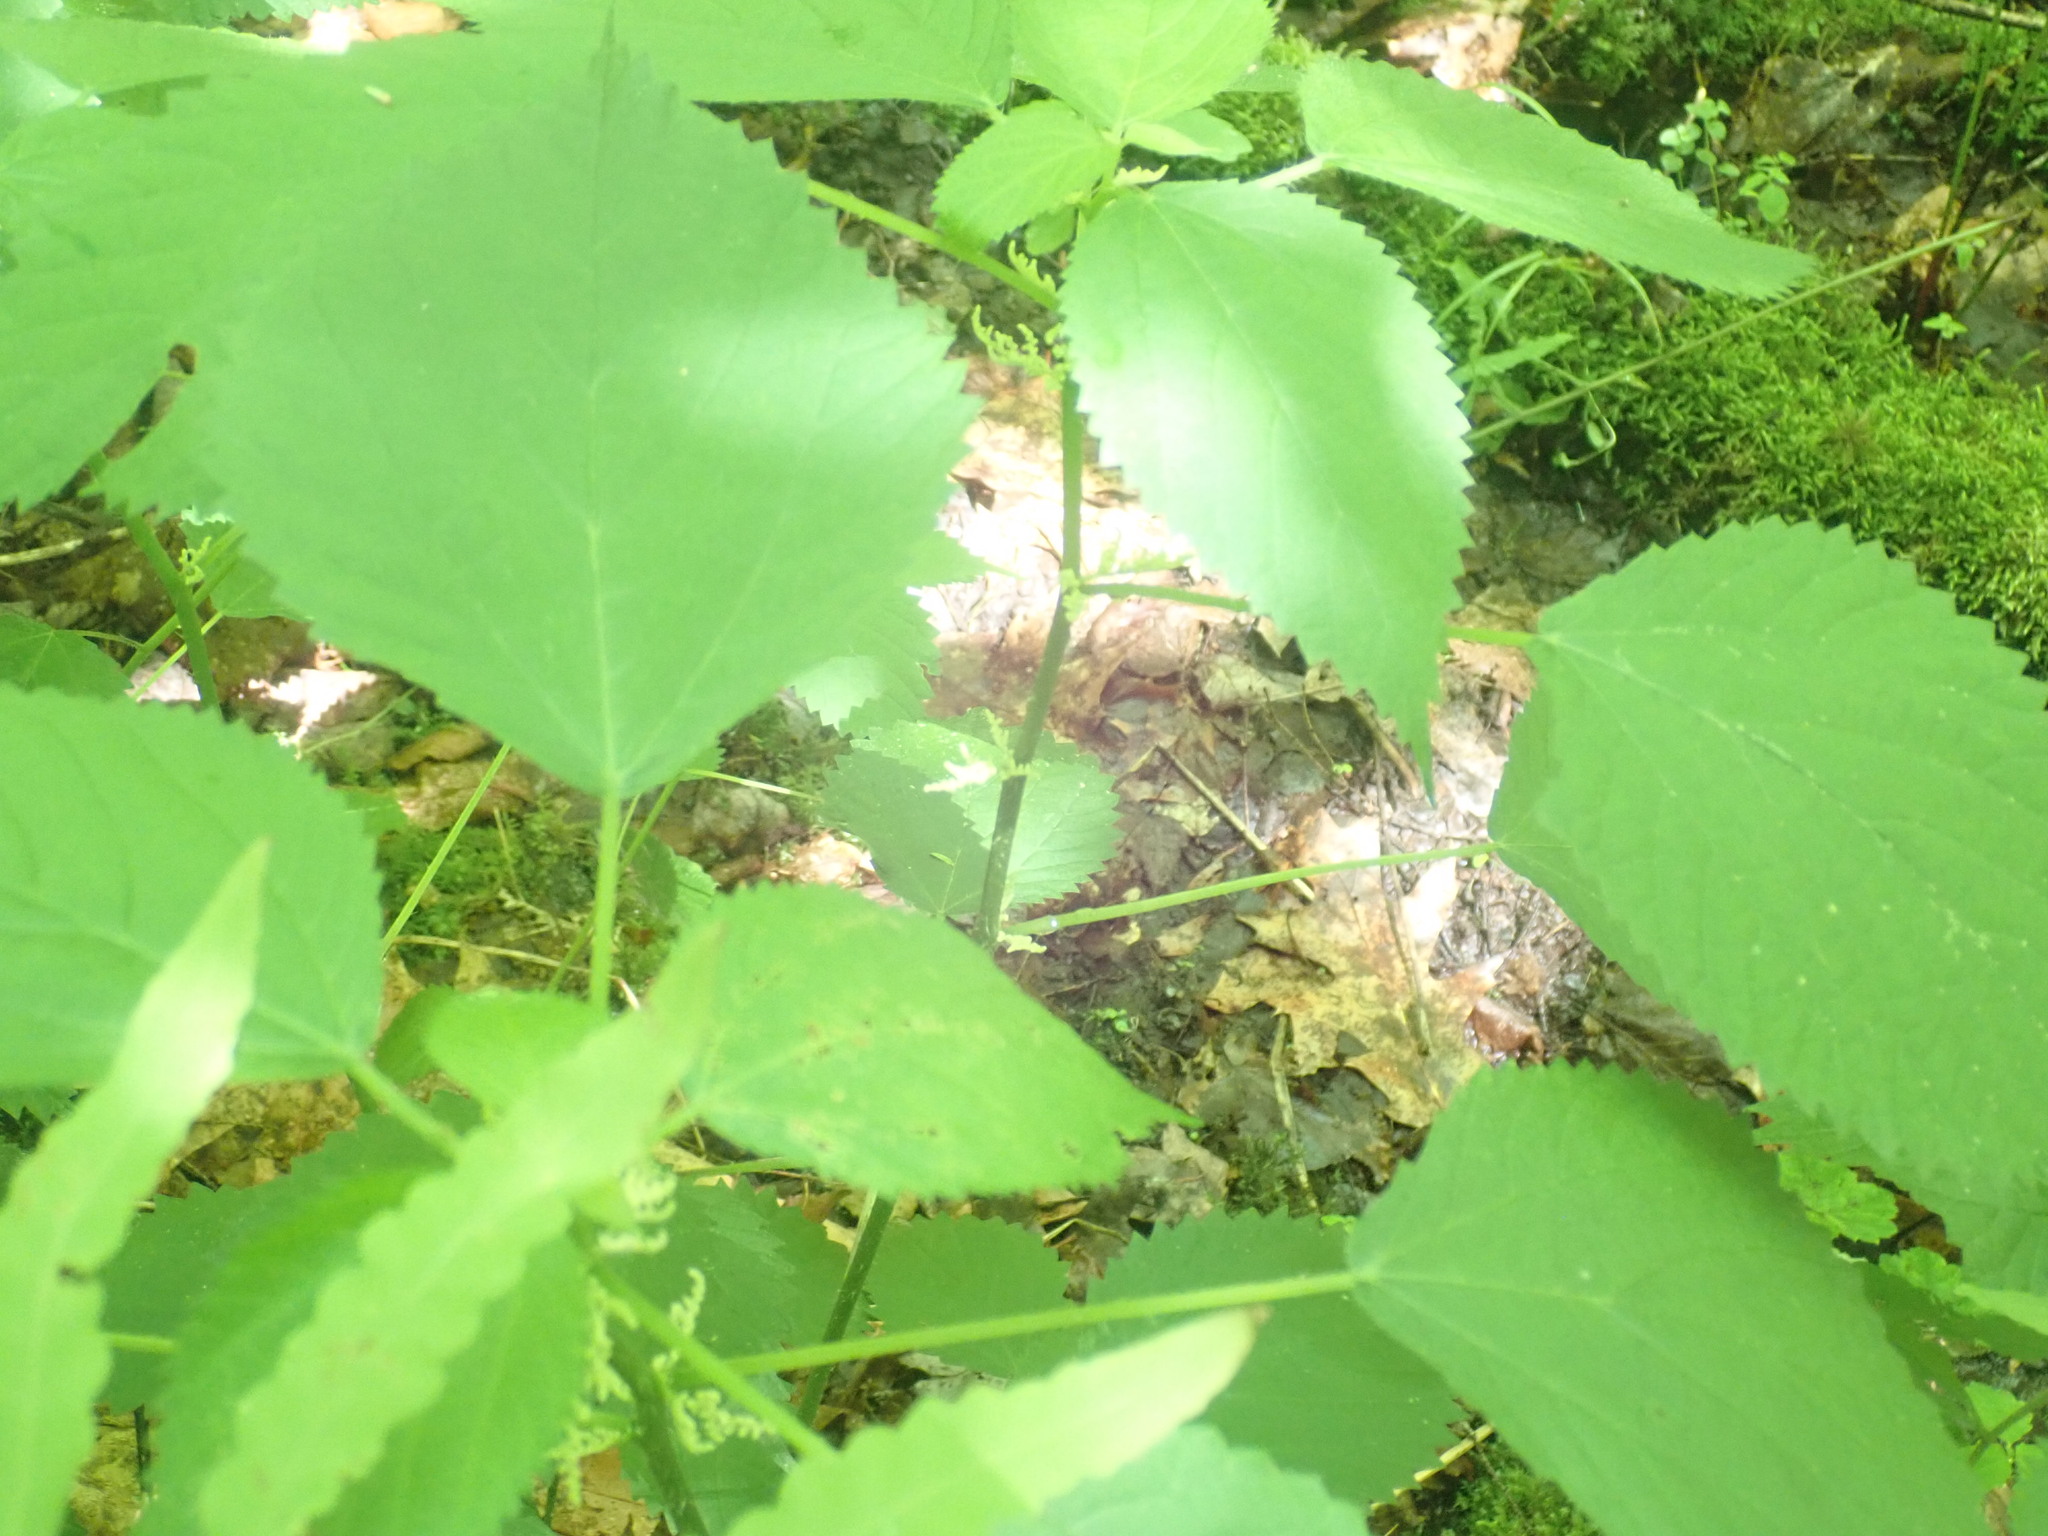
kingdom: Plantae
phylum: Tracheophyta
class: Magnoliopsida
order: Rosales
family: Urticaceae
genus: Laportea
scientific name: Laportea canadensis
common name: Canada nettle
